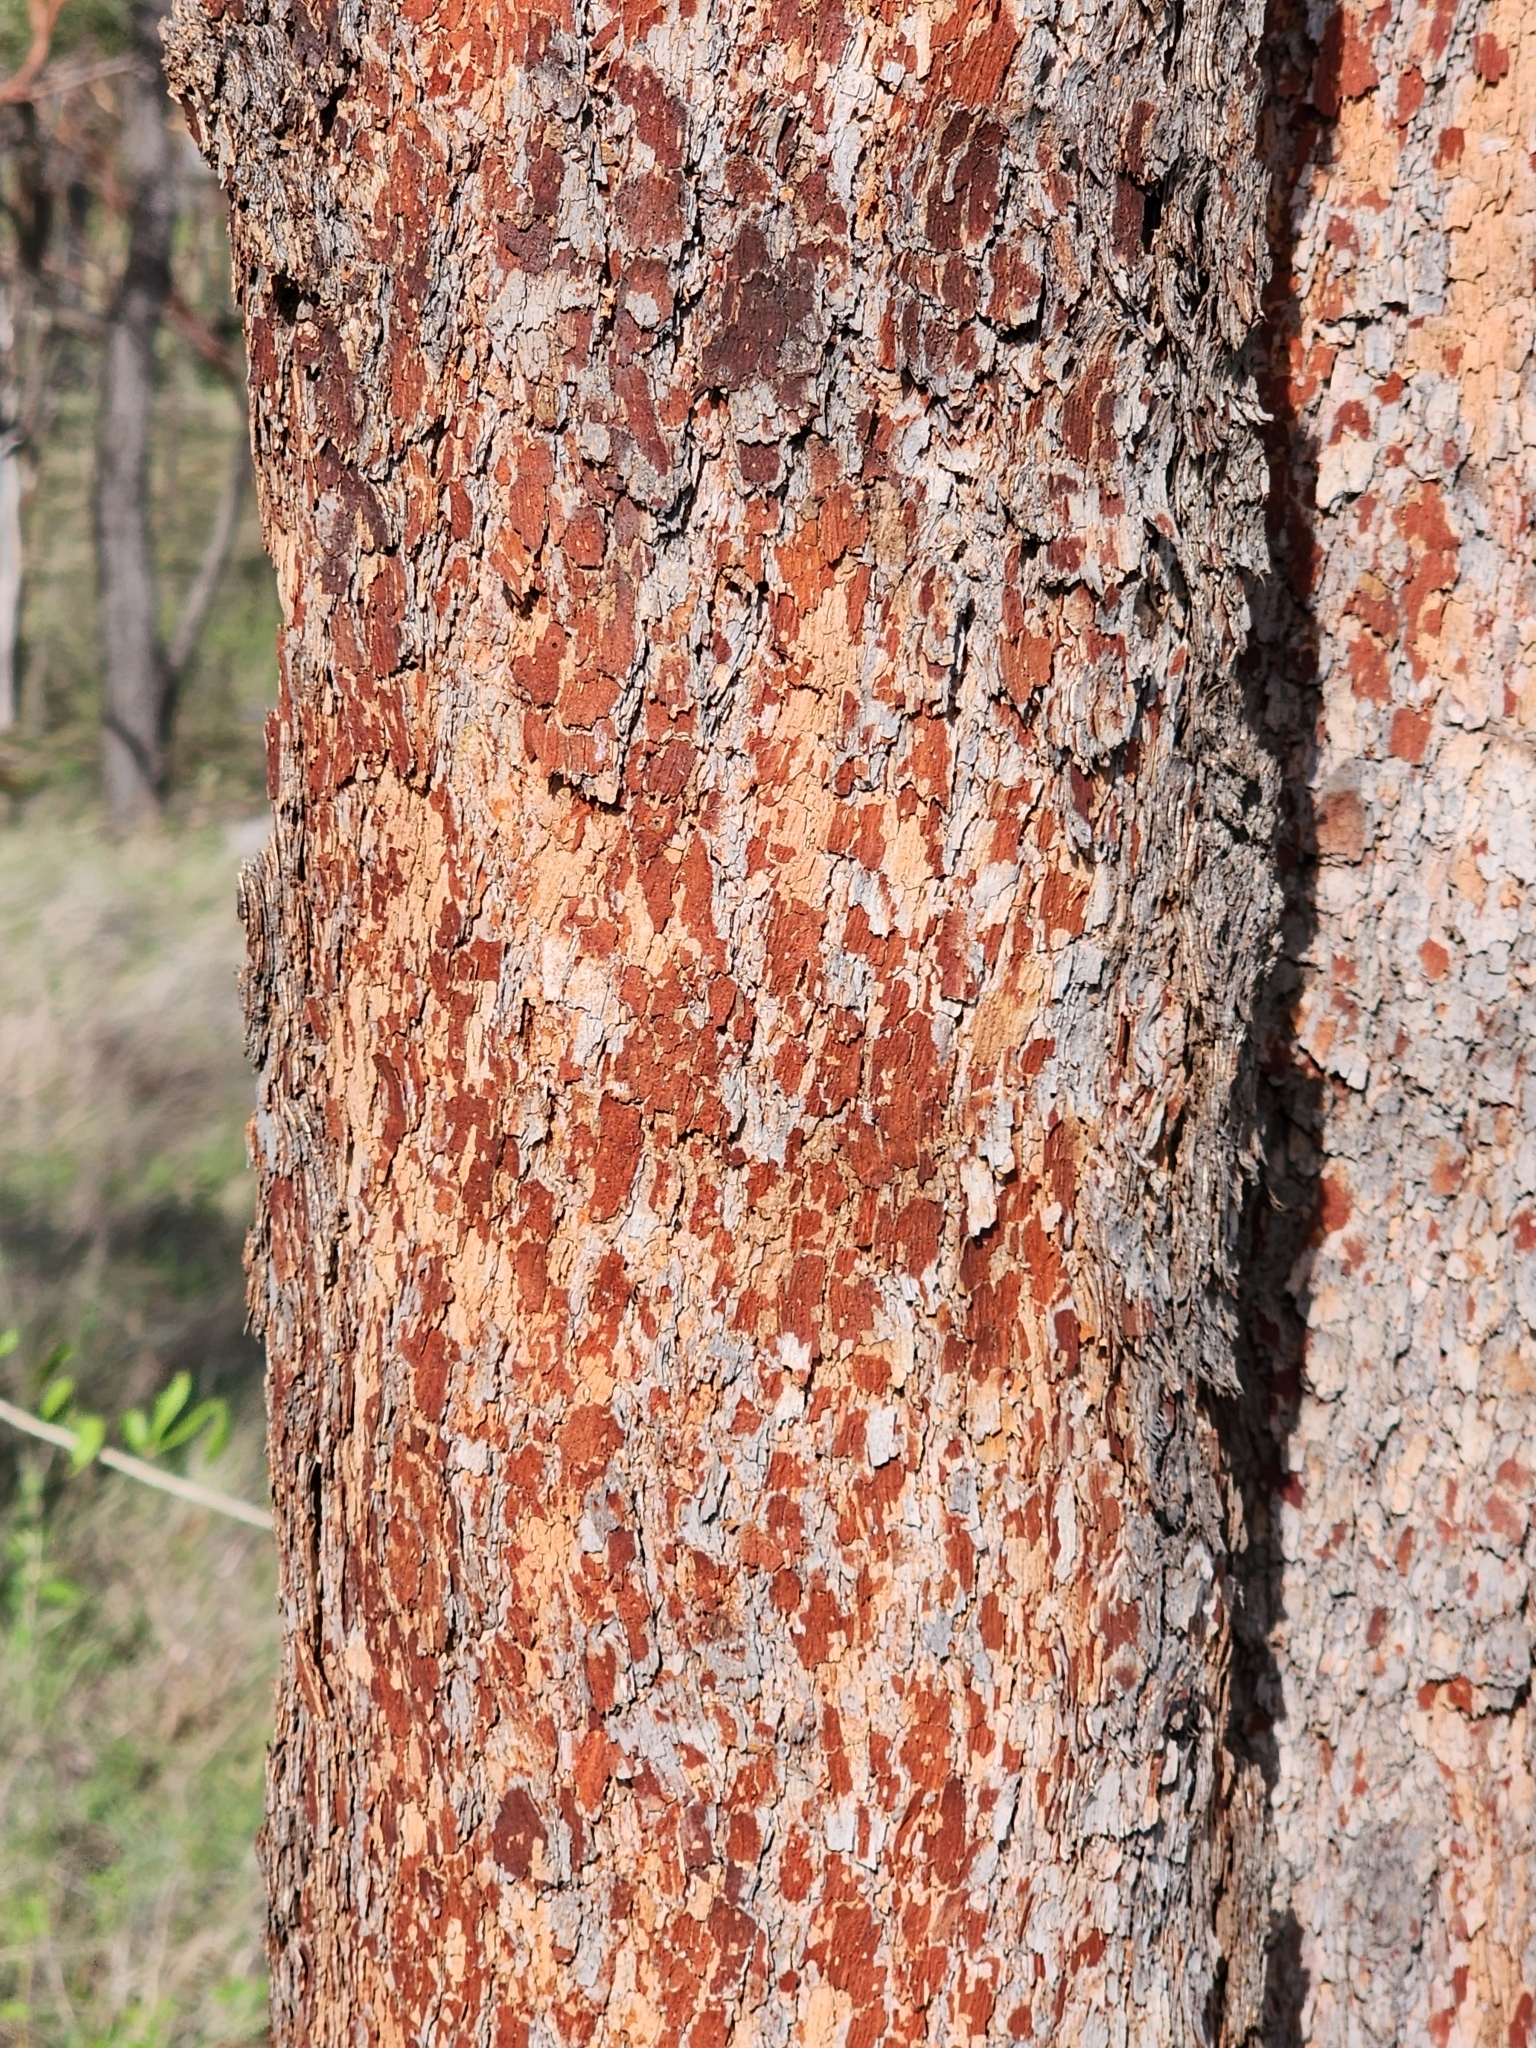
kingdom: Plantae
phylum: Tracheophyta
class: Magnoliopsida
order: Myrtales
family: Myrtaceae
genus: Corymbia
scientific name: Corymbia erythrophloia
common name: Red bloodwood
